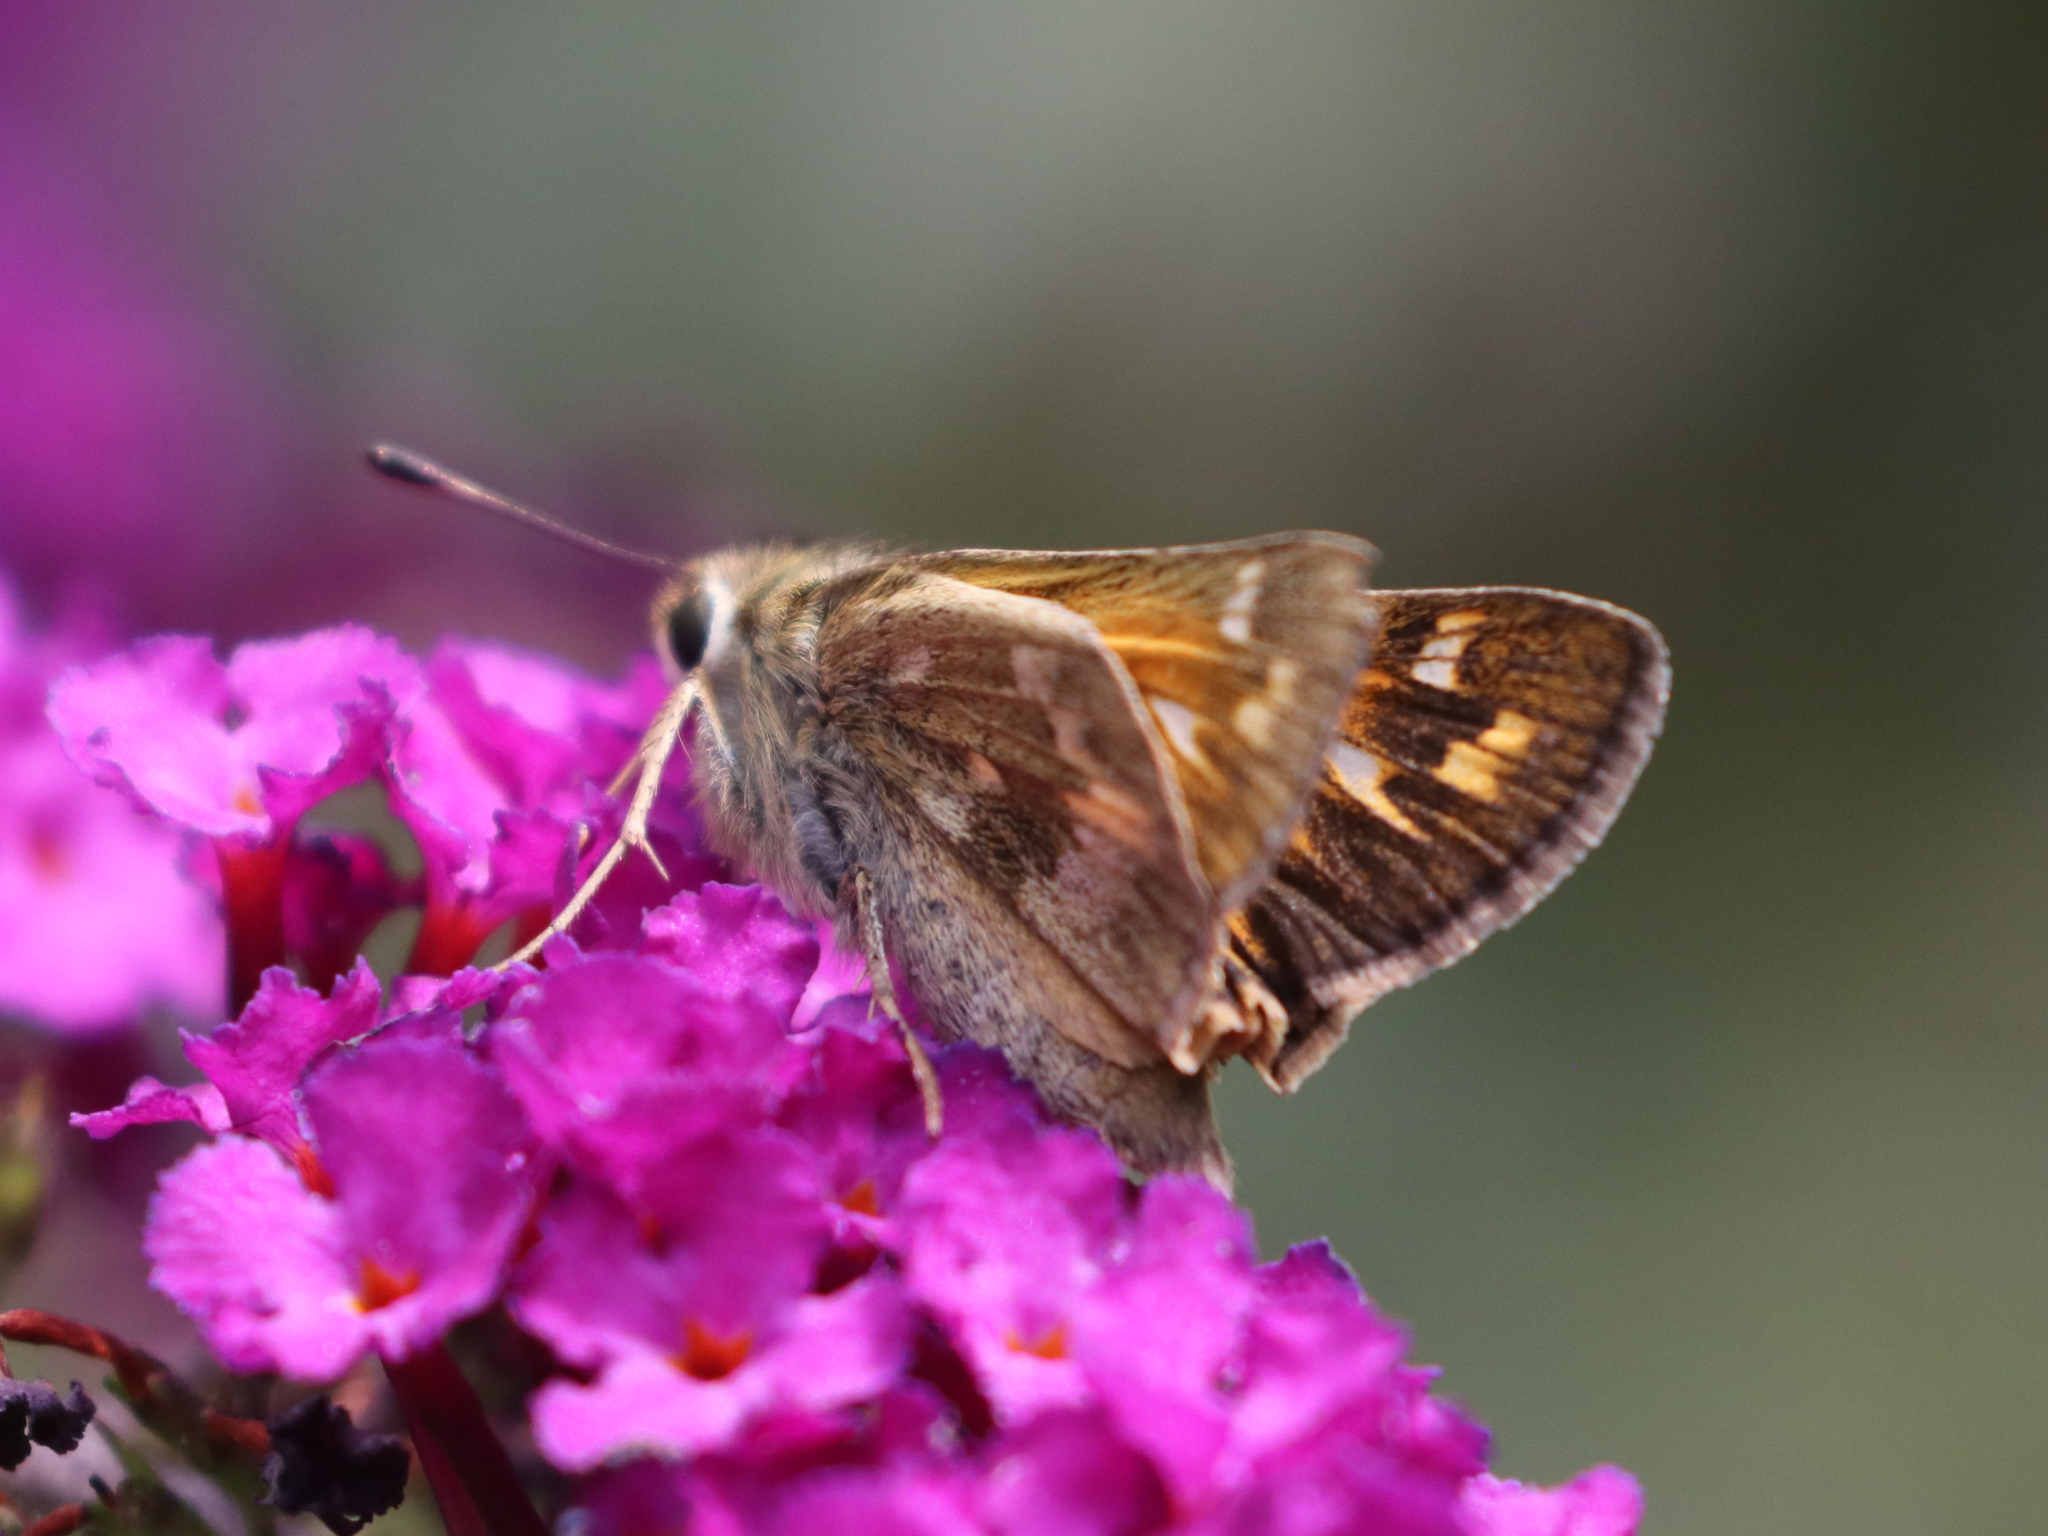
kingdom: Animalia
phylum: Arthropoda
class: Insecta
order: Lepidoptera
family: Hesperiidae
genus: Atalopedes
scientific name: Atalopedes
